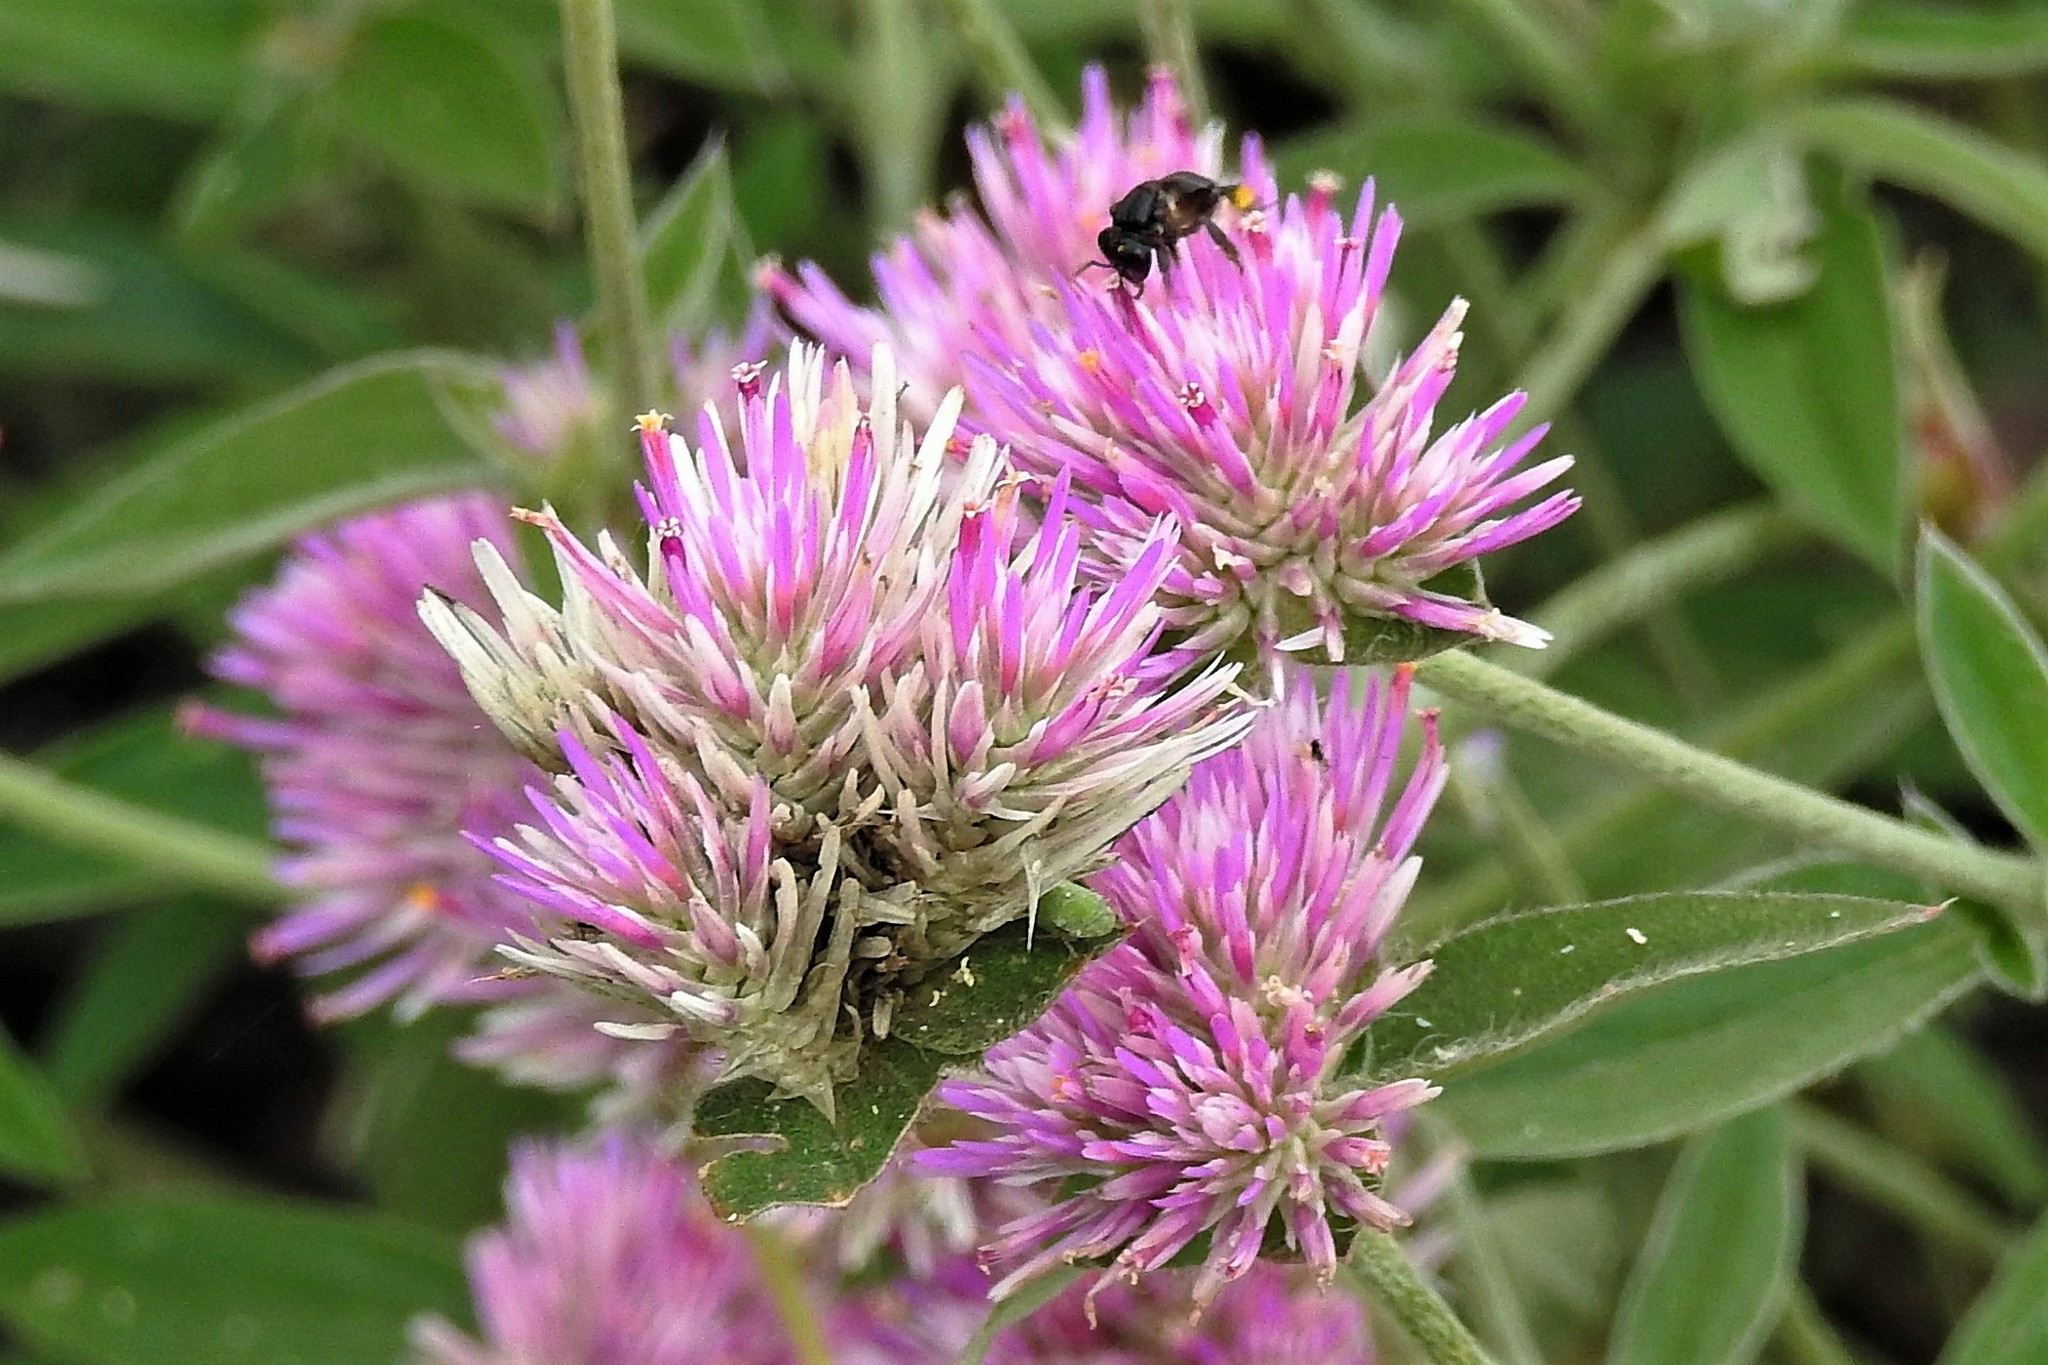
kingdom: Plantae
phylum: Tracheophyta
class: Magnoliopsida
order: Caryophyllales
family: Amaranthaceae
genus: Gomphrena
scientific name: Gomphrena pulchella
